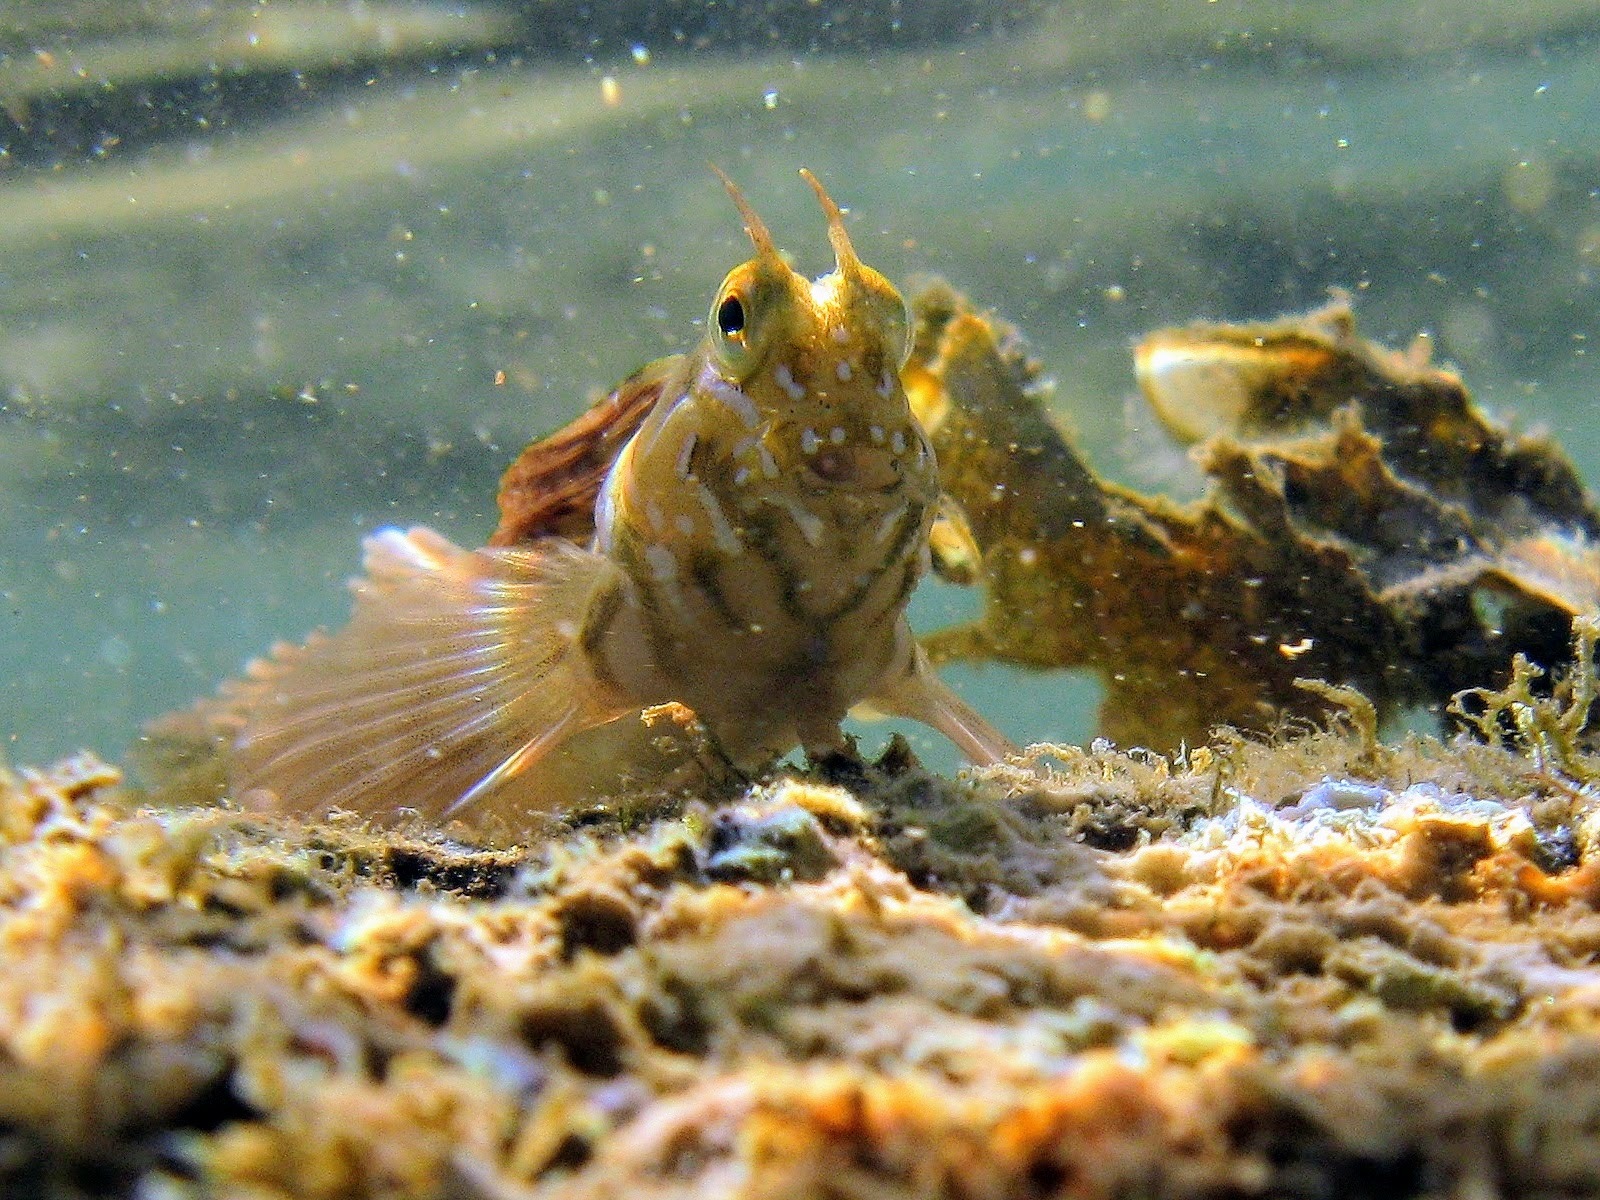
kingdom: Animalia
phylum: Chordata
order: Perciformes
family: Blenniidae
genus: Aidablennius
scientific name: Aidablennius sphynx
